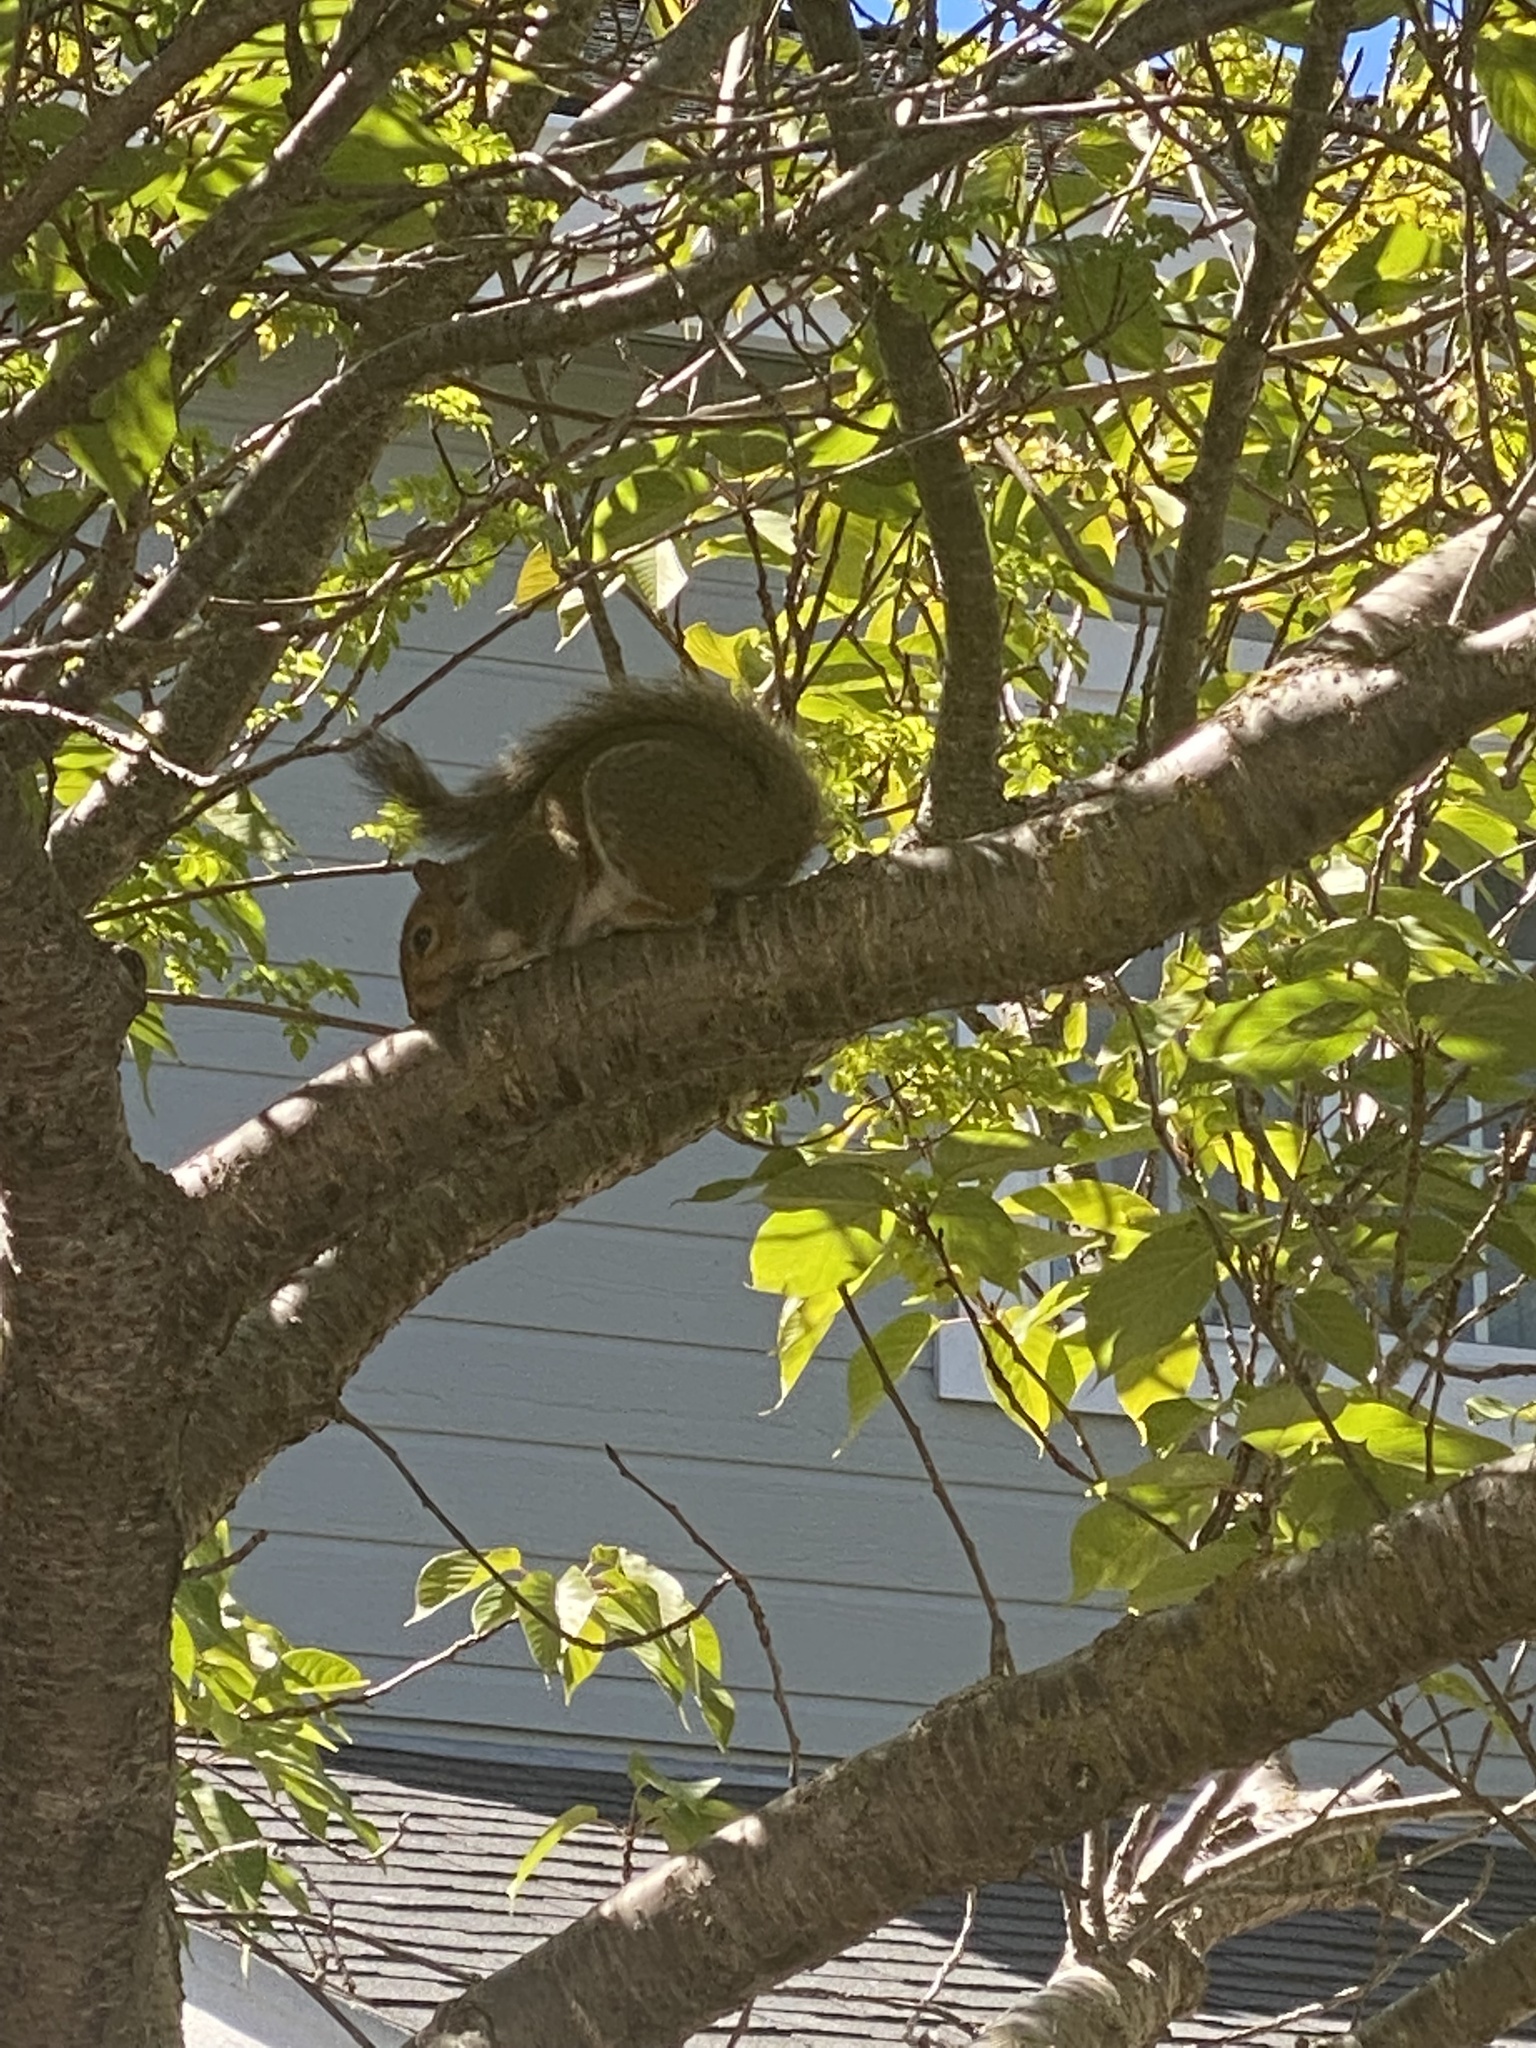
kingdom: Animalia
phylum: Chordata
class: Mammalia
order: Rodentia
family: Sciuridae
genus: Sciurus
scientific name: Sciurus carolinensis
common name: Eastern gray squirrel
